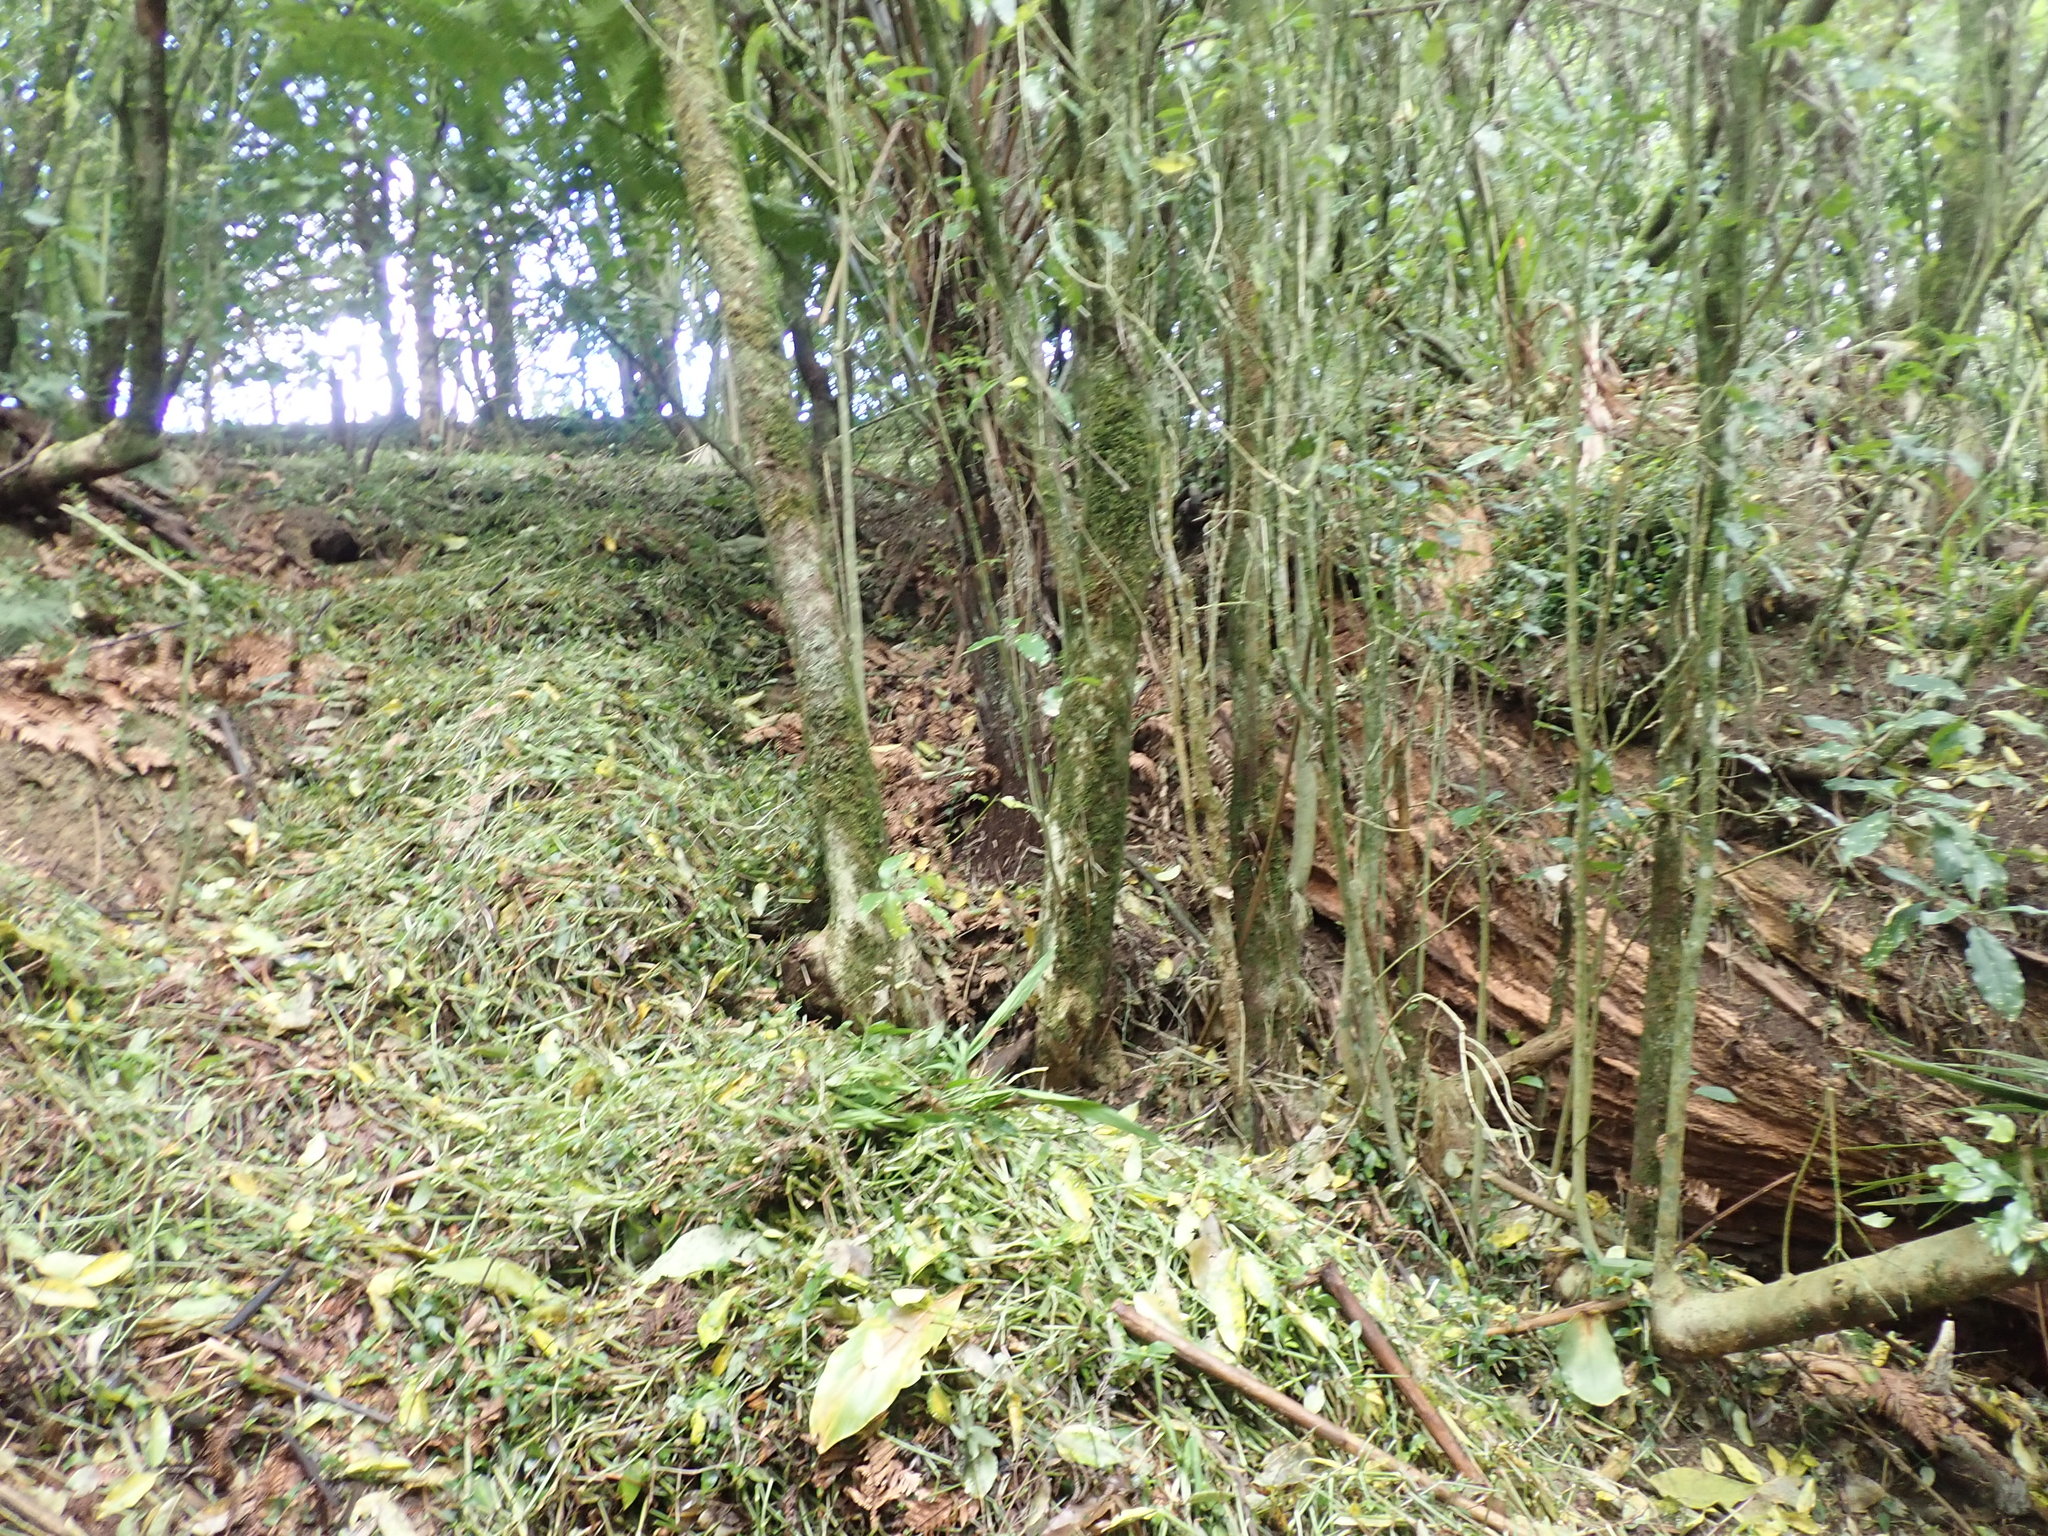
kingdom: Plantae
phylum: Tracheophyta
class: Liliopsida
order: Commelinales
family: Commelinaceae
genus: Tradescantia
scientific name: Tradescantia fluminensis
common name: Wandering-jew
